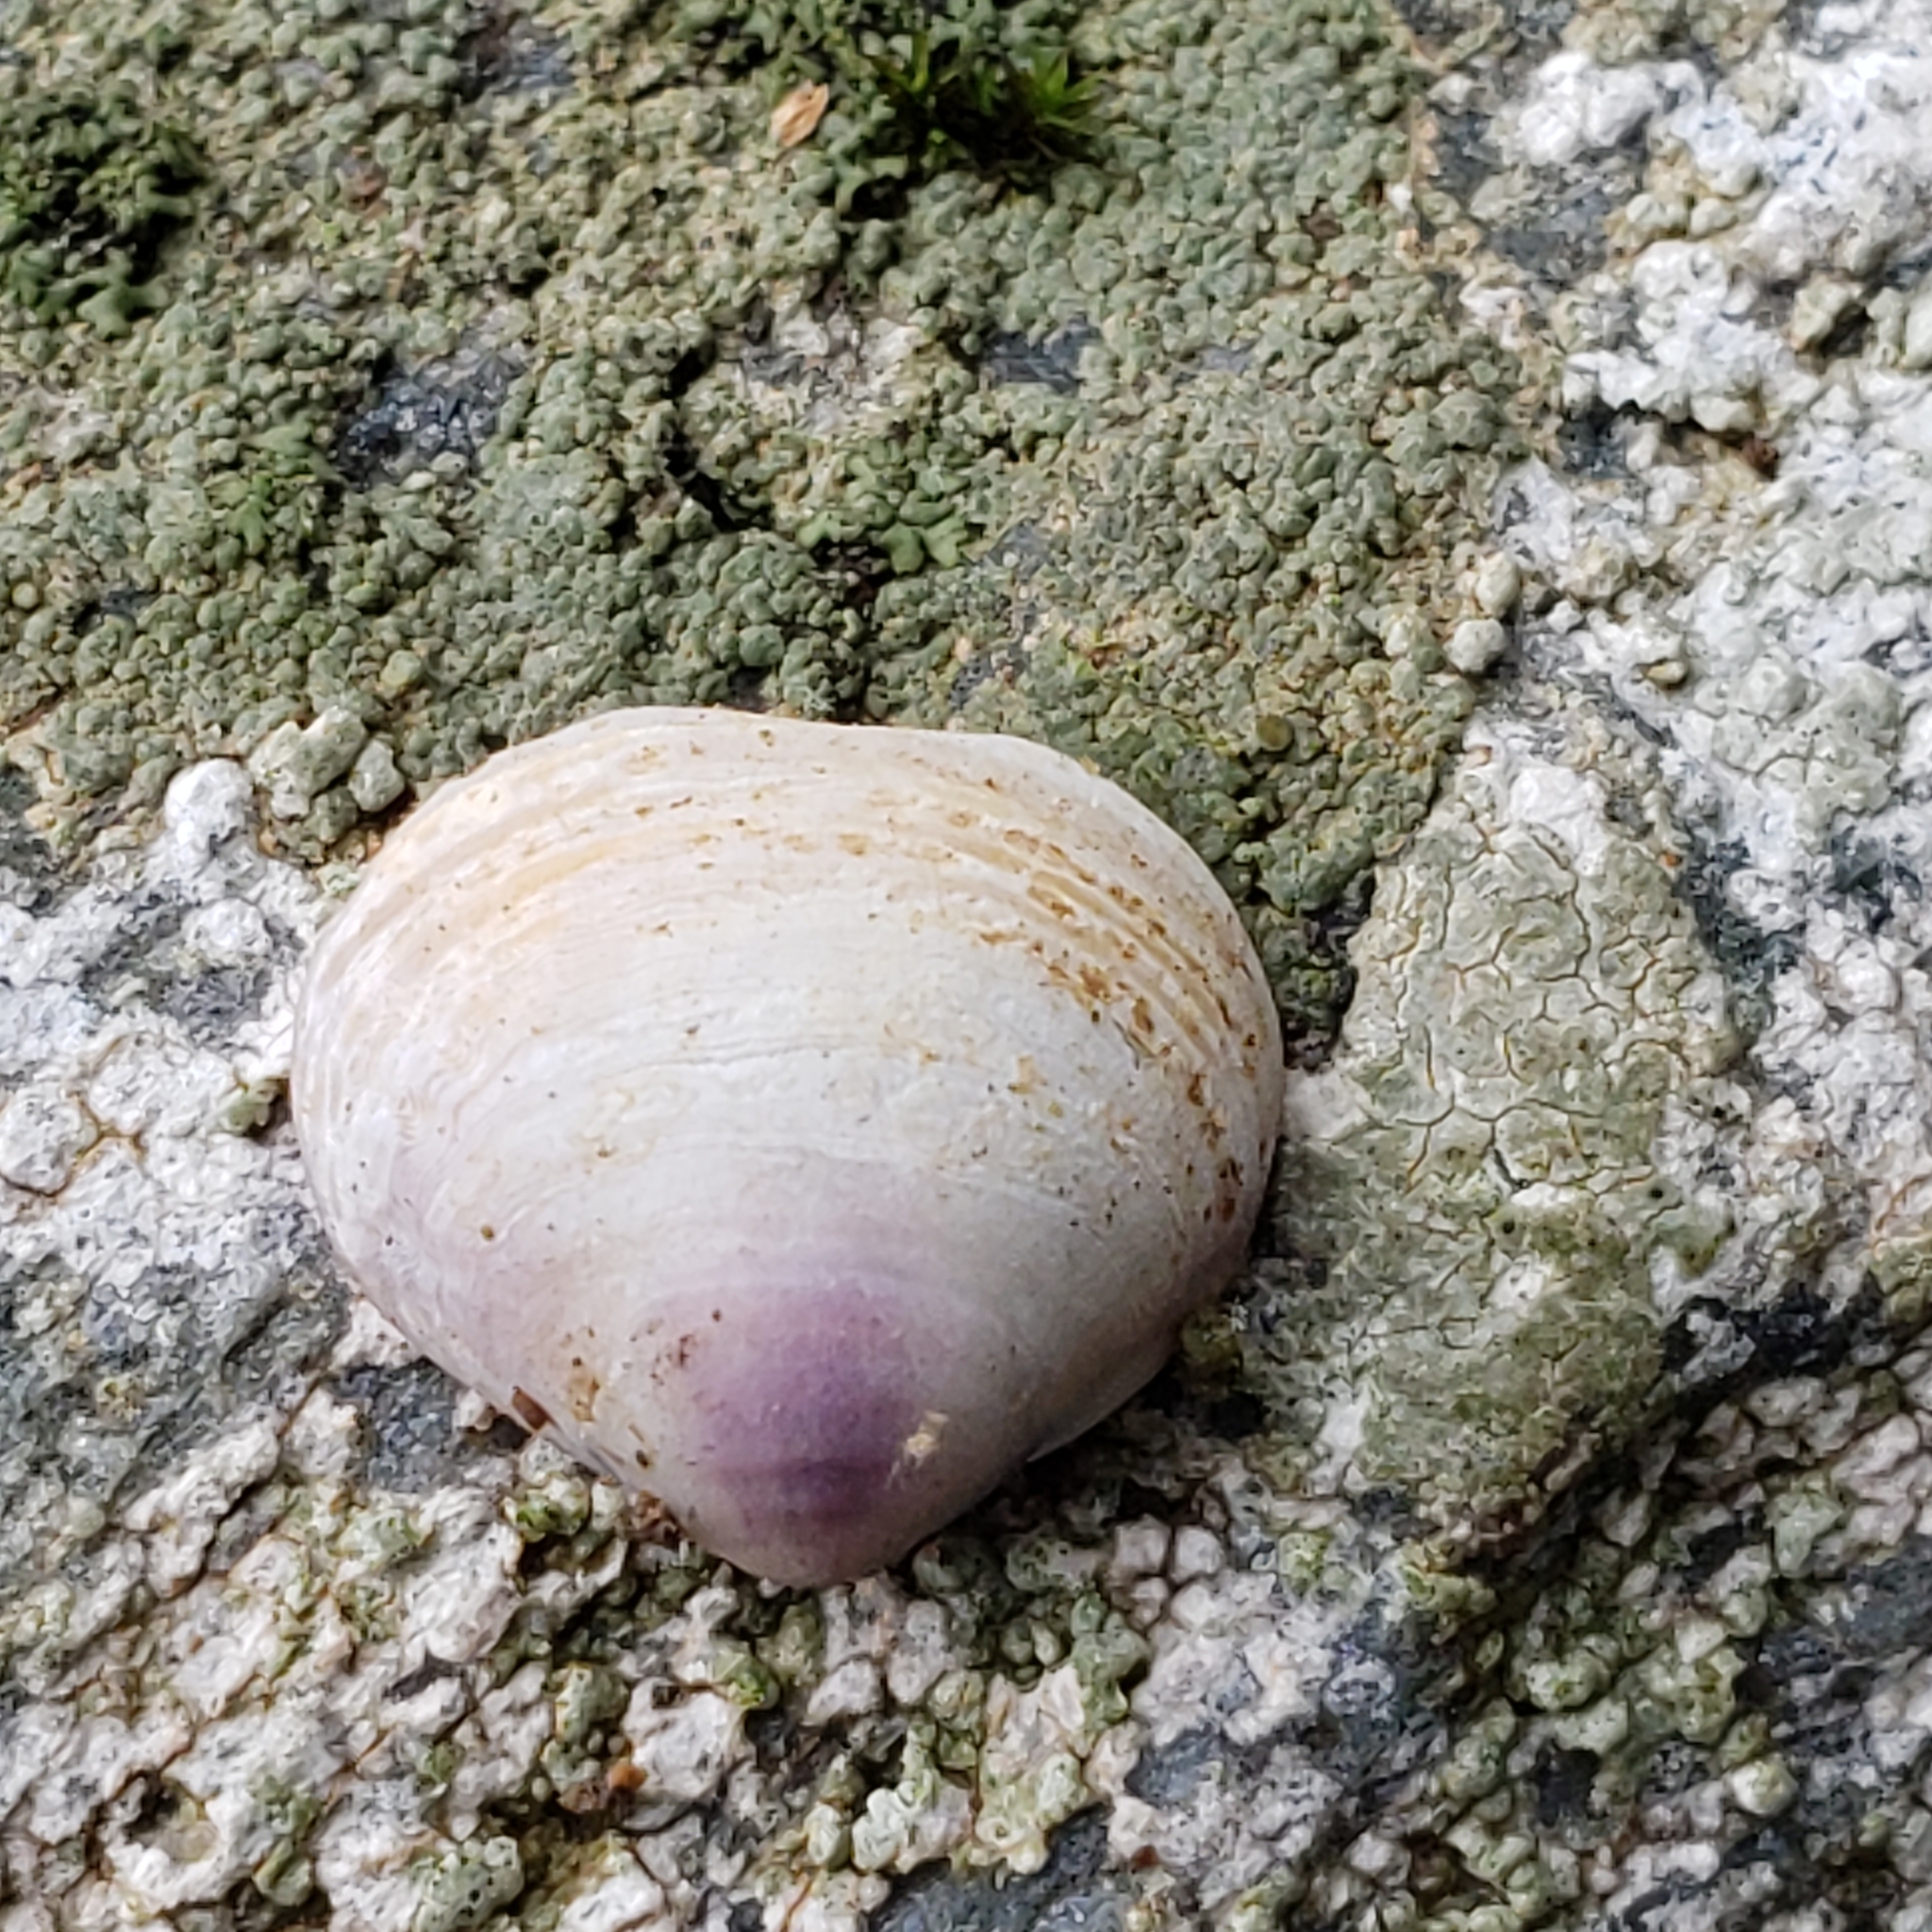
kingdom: Animalia
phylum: Mollusca
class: Bivalvia
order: Venerida
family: Cyrenidae
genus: Corbicula
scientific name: Corbicula fluminea
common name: Asian clam
